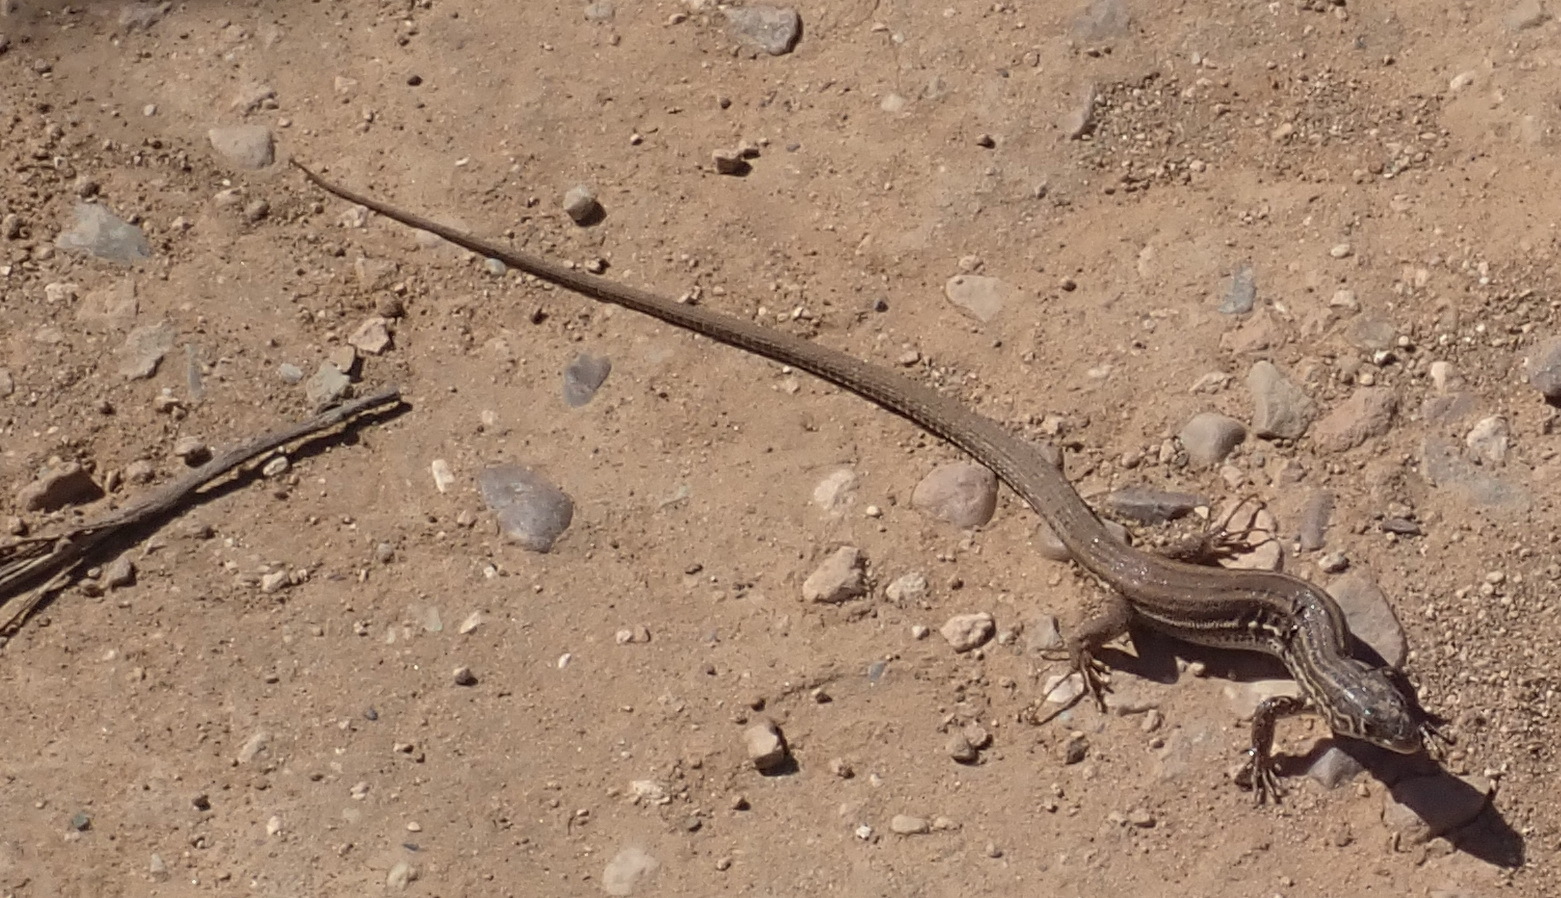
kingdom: Animalia
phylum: Chordata
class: Squamata
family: Lacertidae
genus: Nucras
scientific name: Nucras taeniolata
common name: Albany sandveld lizard
